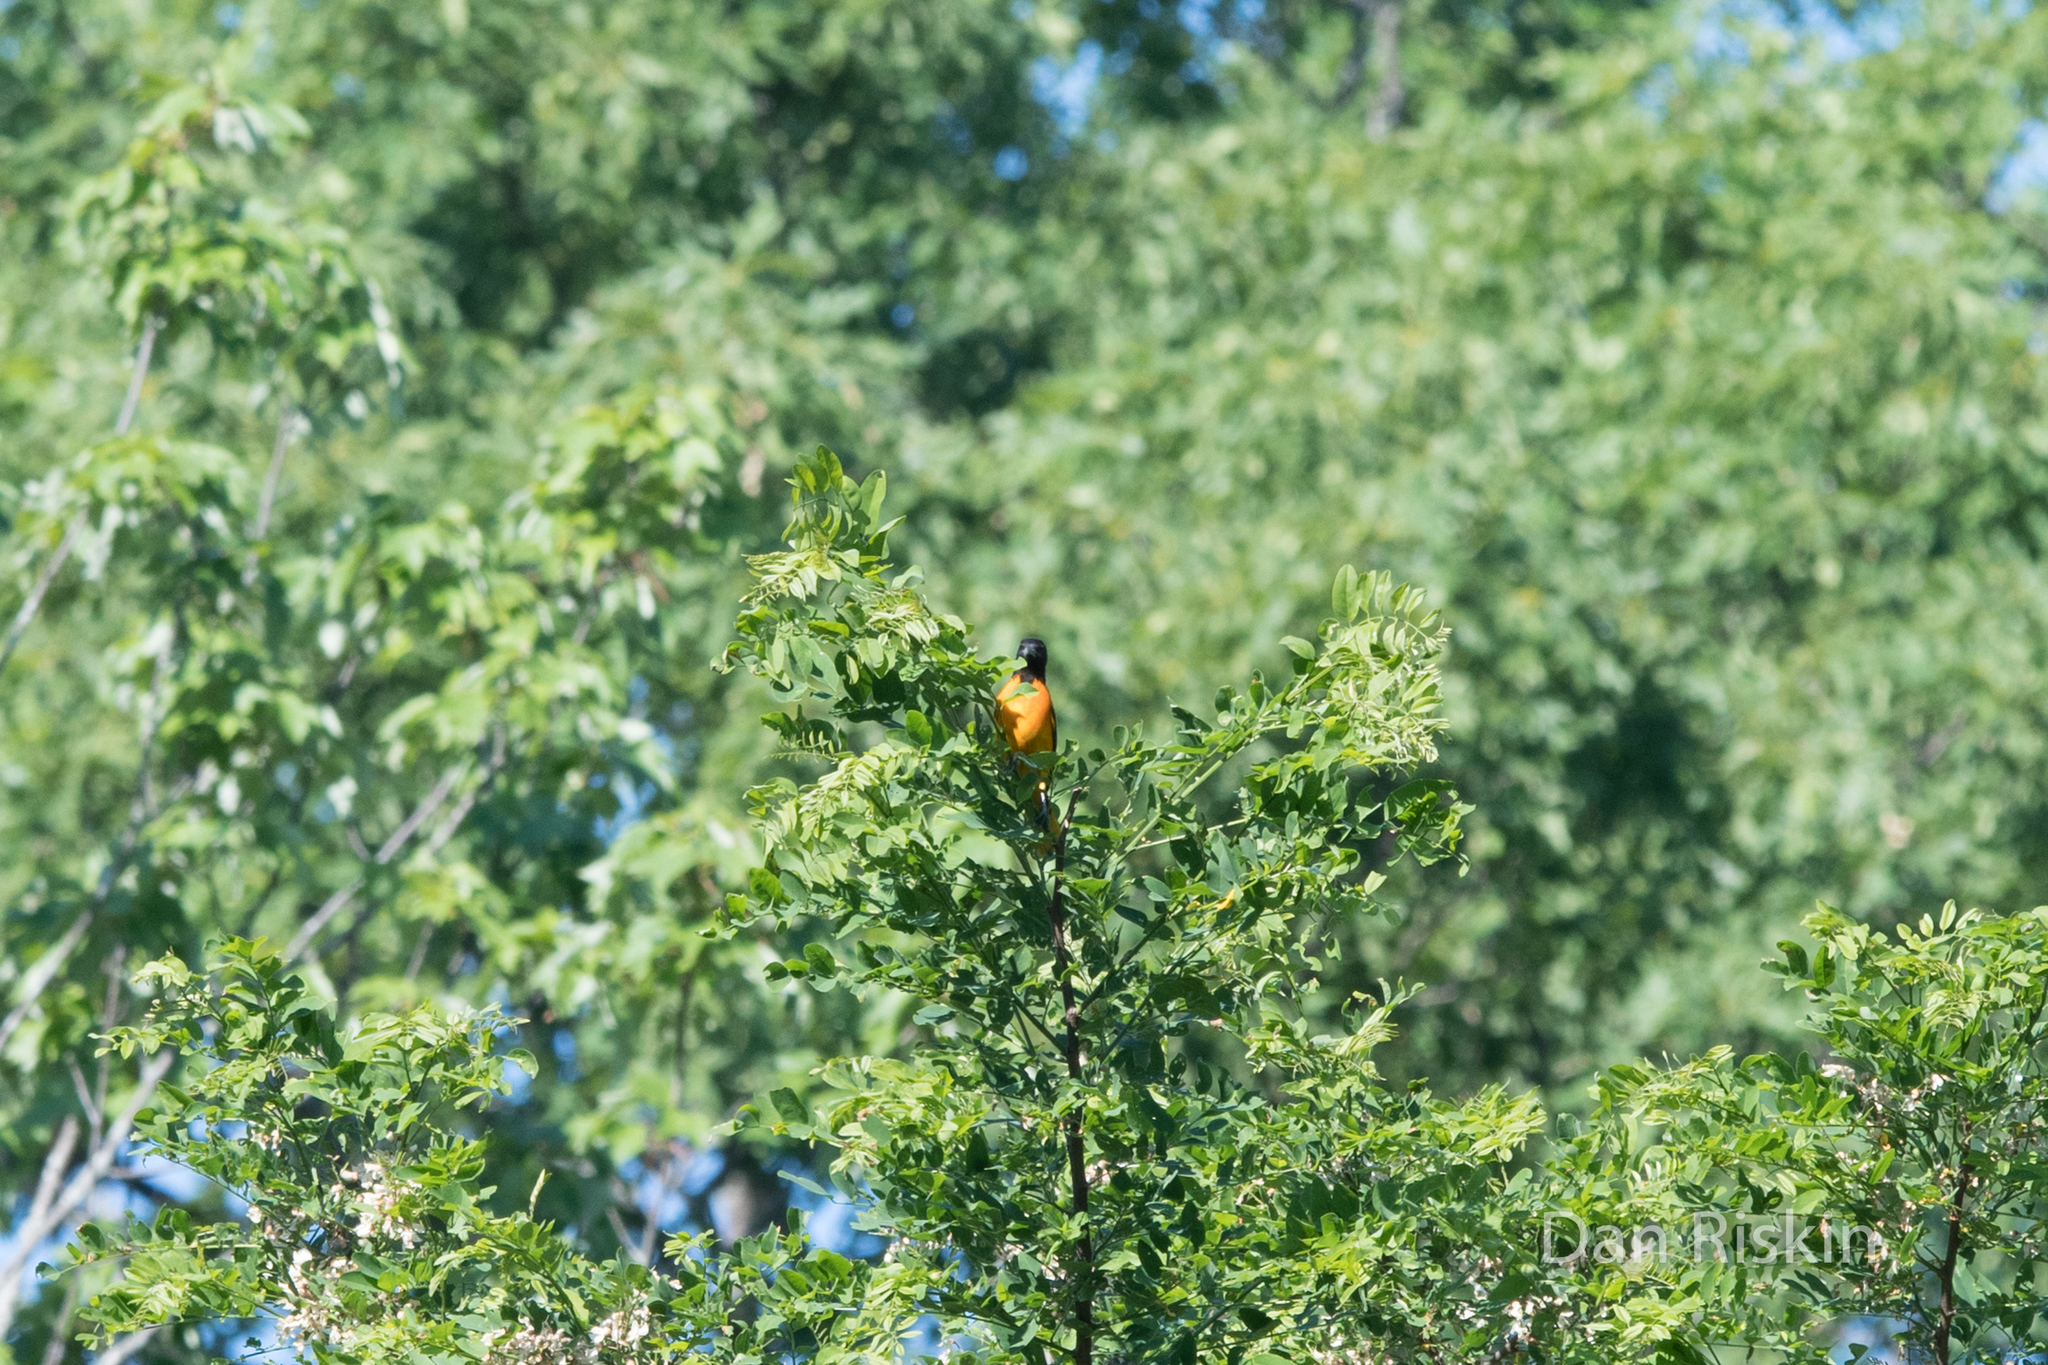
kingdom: Animalia
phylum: Chordata
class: Aves
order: Passeriformes
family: Icteridae
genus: Icterus
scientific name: Icterus galbula
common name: Baltimore oriole
